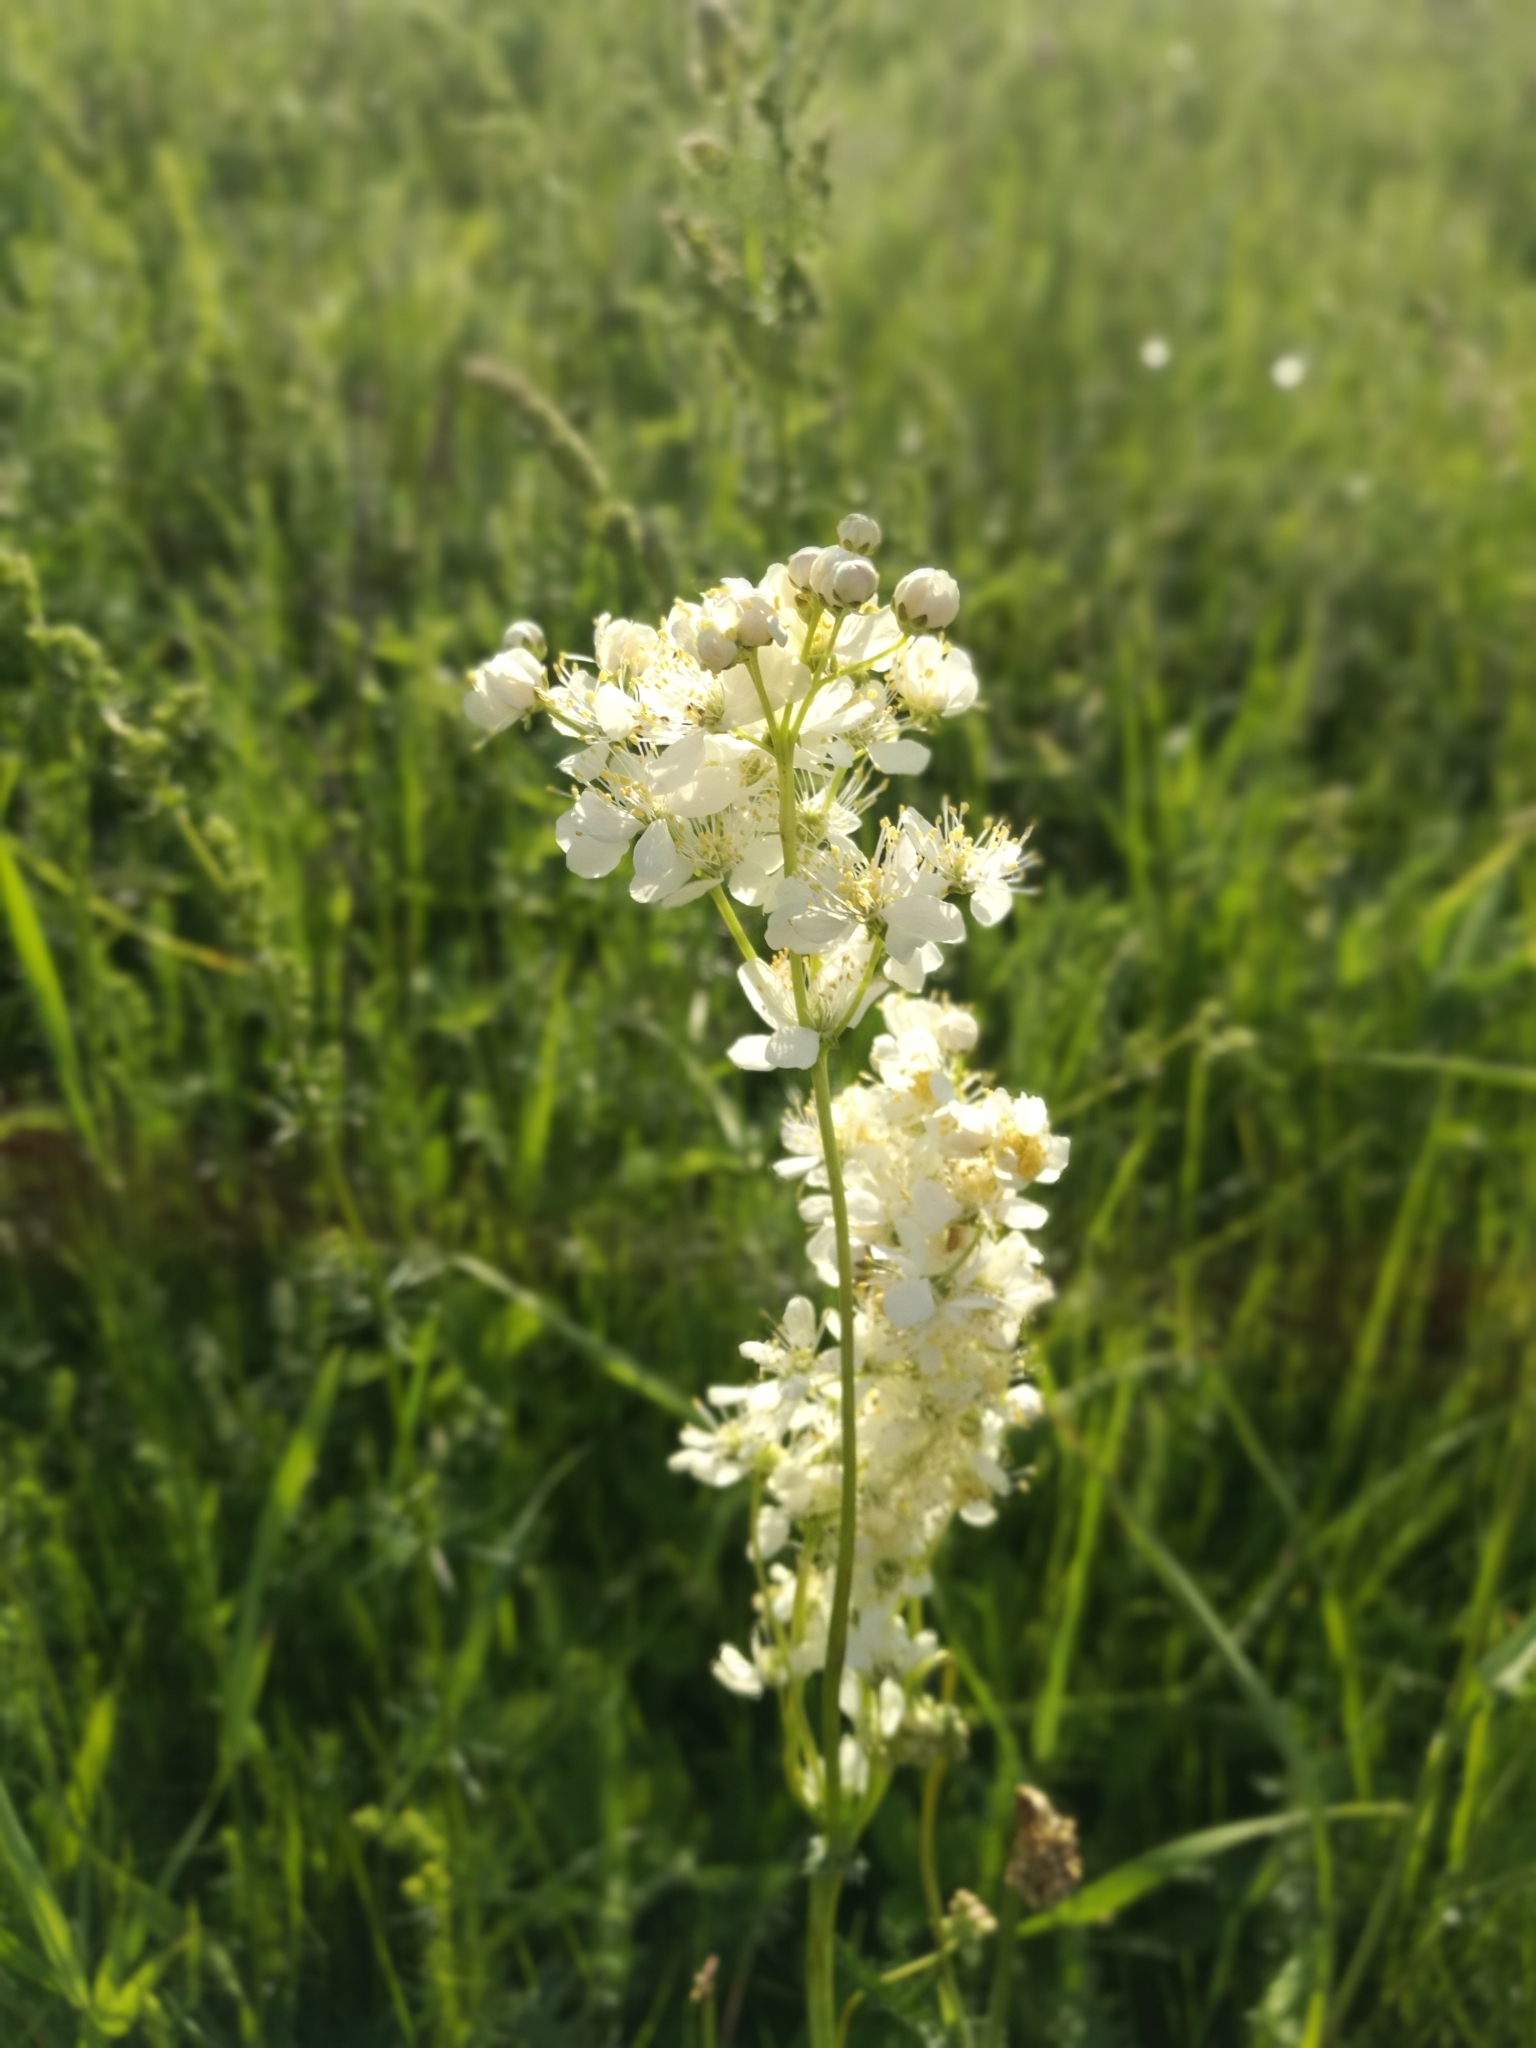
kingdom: Plantae
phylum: Tracheophyta
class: Magnoliopsida
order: Rosales
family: Rosaceae
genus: Filipendula
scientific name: Filipendula vulgaris
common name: Dropwort
